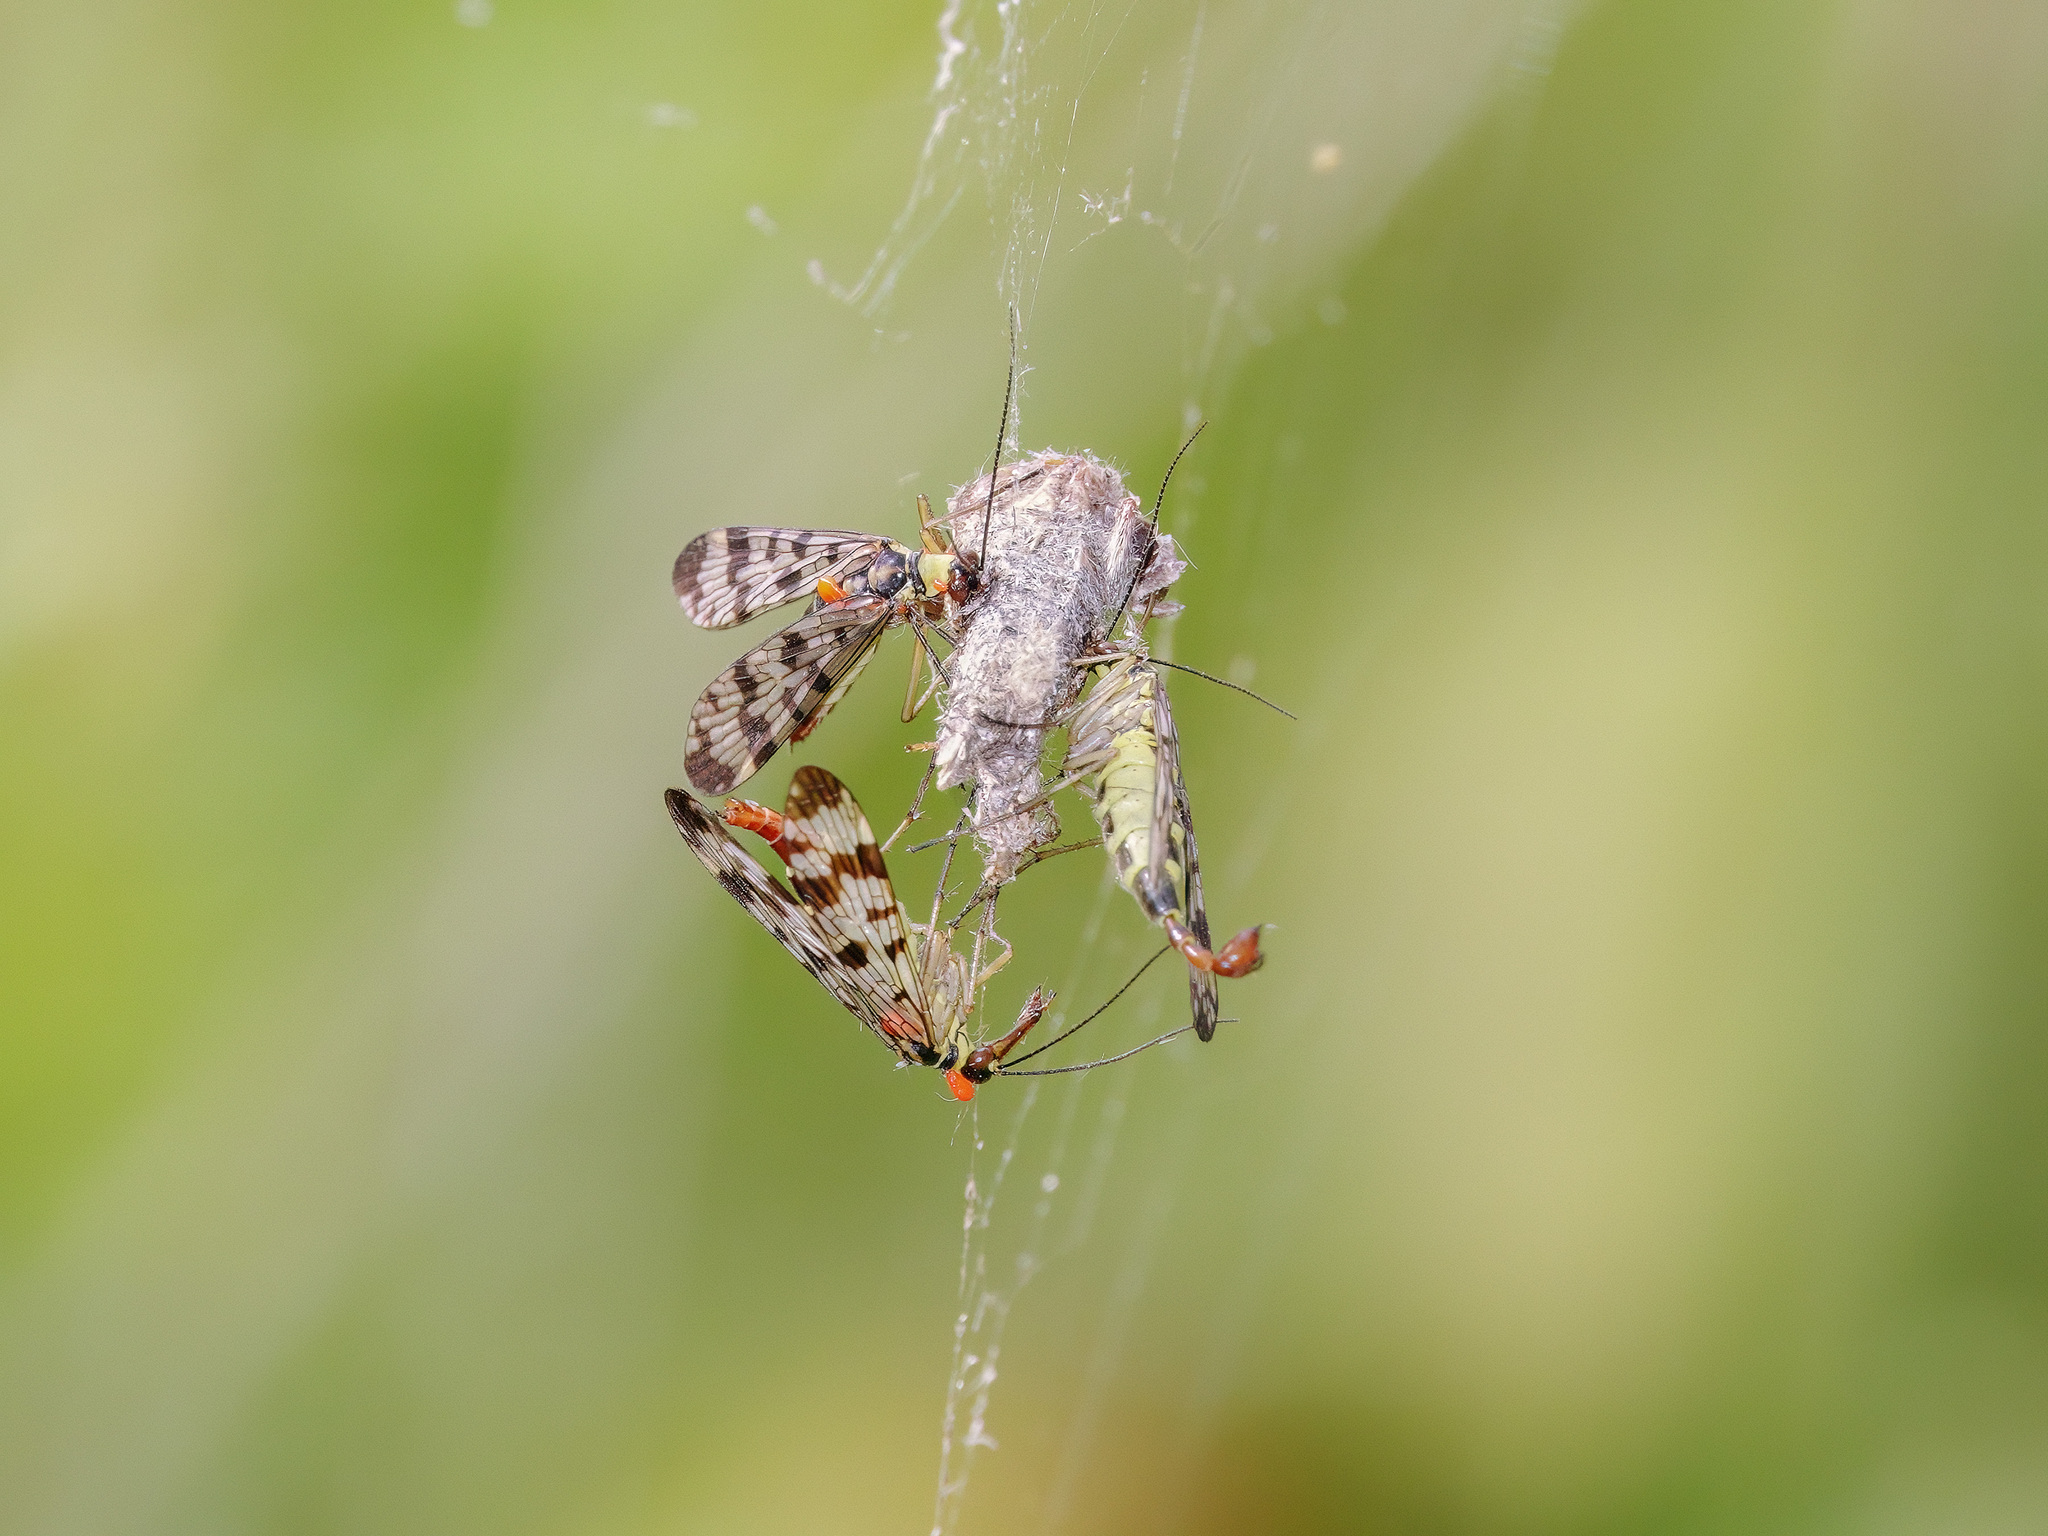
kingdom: Animalia
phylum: Arthropoda
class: Insecta
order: Mecoptera
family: Panorpidae
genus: Panorpa
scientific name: Panorpa communis
